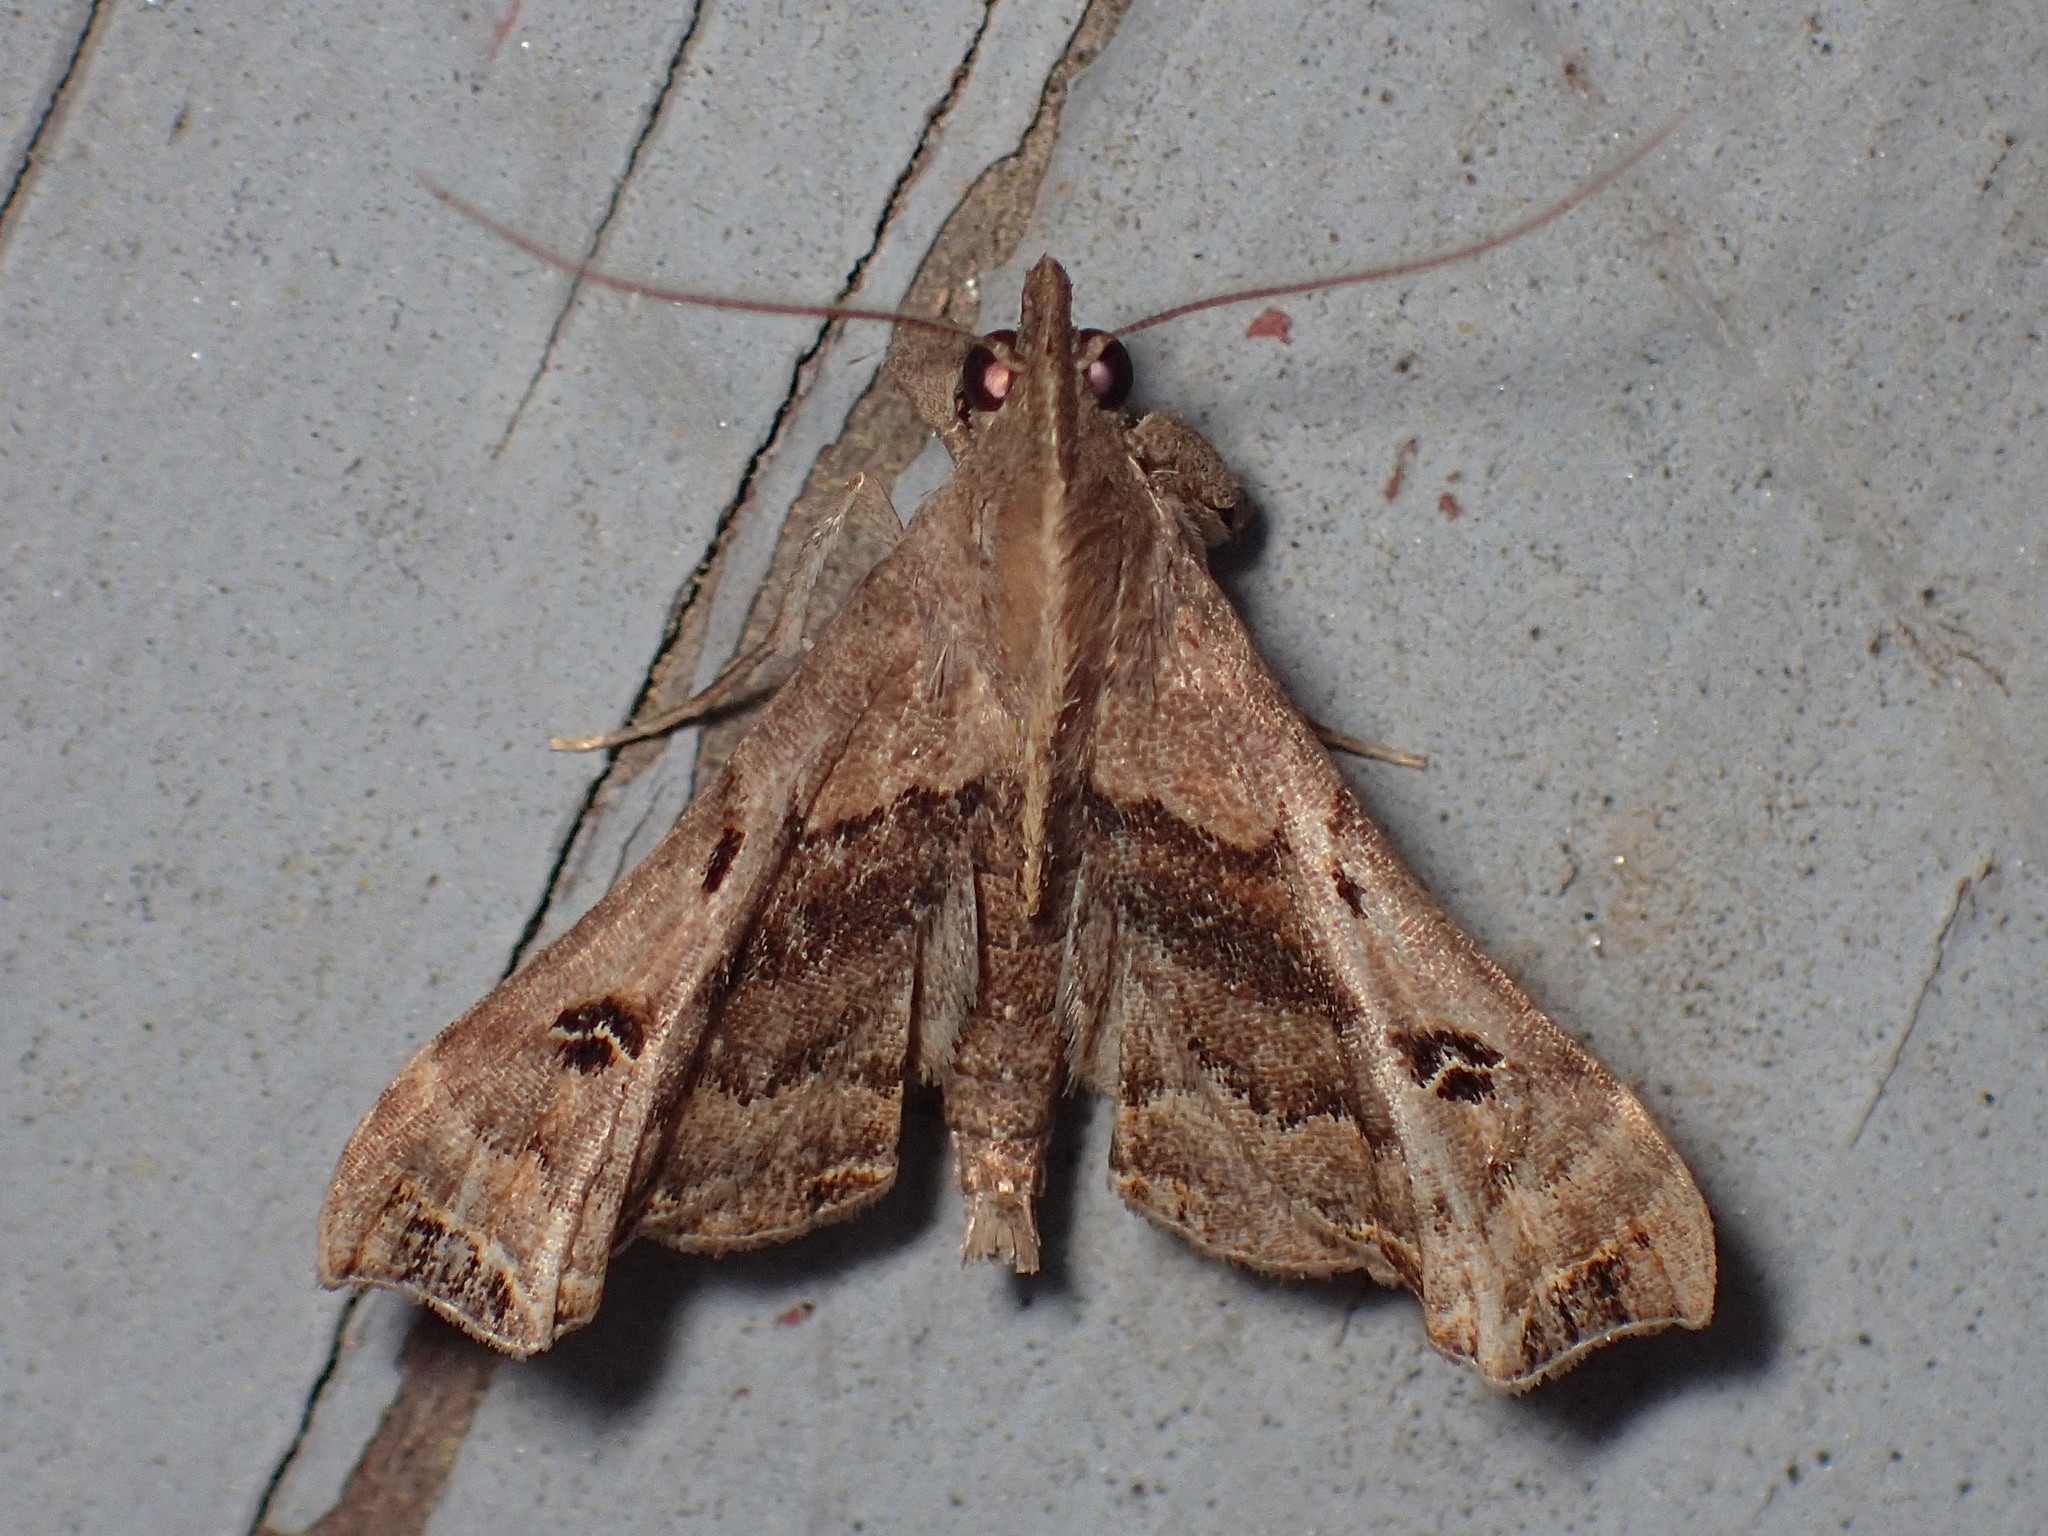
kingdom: Animalia
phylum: Arthropoda
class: Insecta
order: Lepidoptera
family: Erebidae
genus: Palthis
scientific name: Palthis asopialis
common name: Faint-spotted palthis moth
